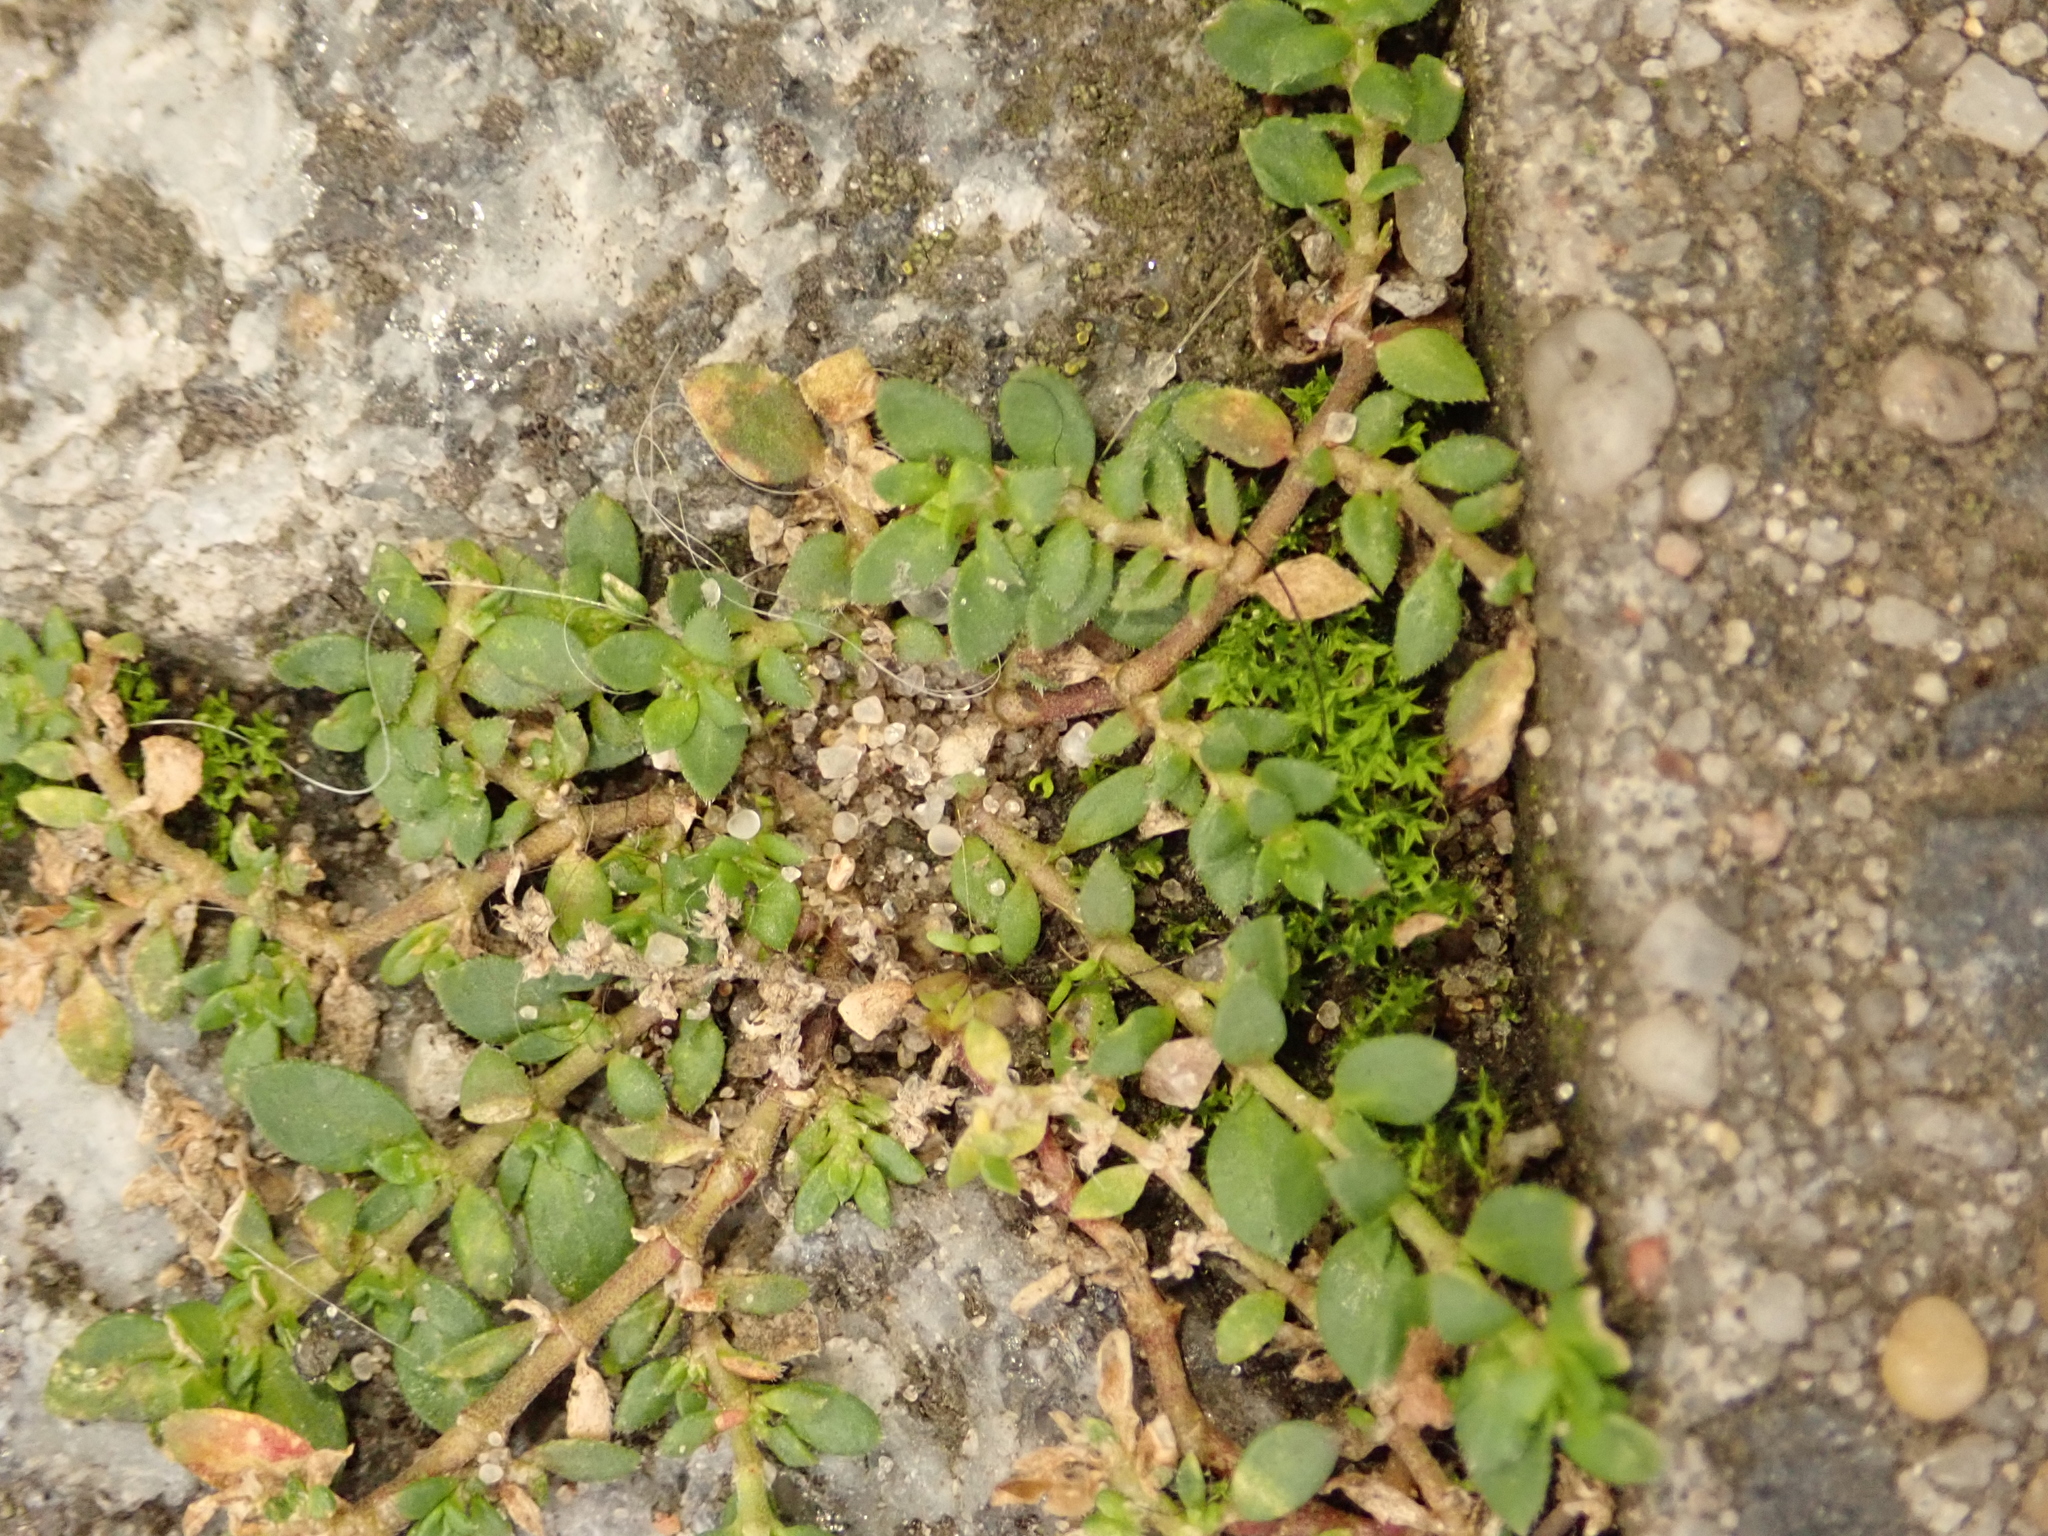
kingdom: Plantae
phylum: Tracheophyta
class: Magnoliopsida
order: Caryophyllales
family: Caryophyllaceae
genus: Herniaria
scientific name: Herniaria hirsuta
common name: Hairy rupturewort
